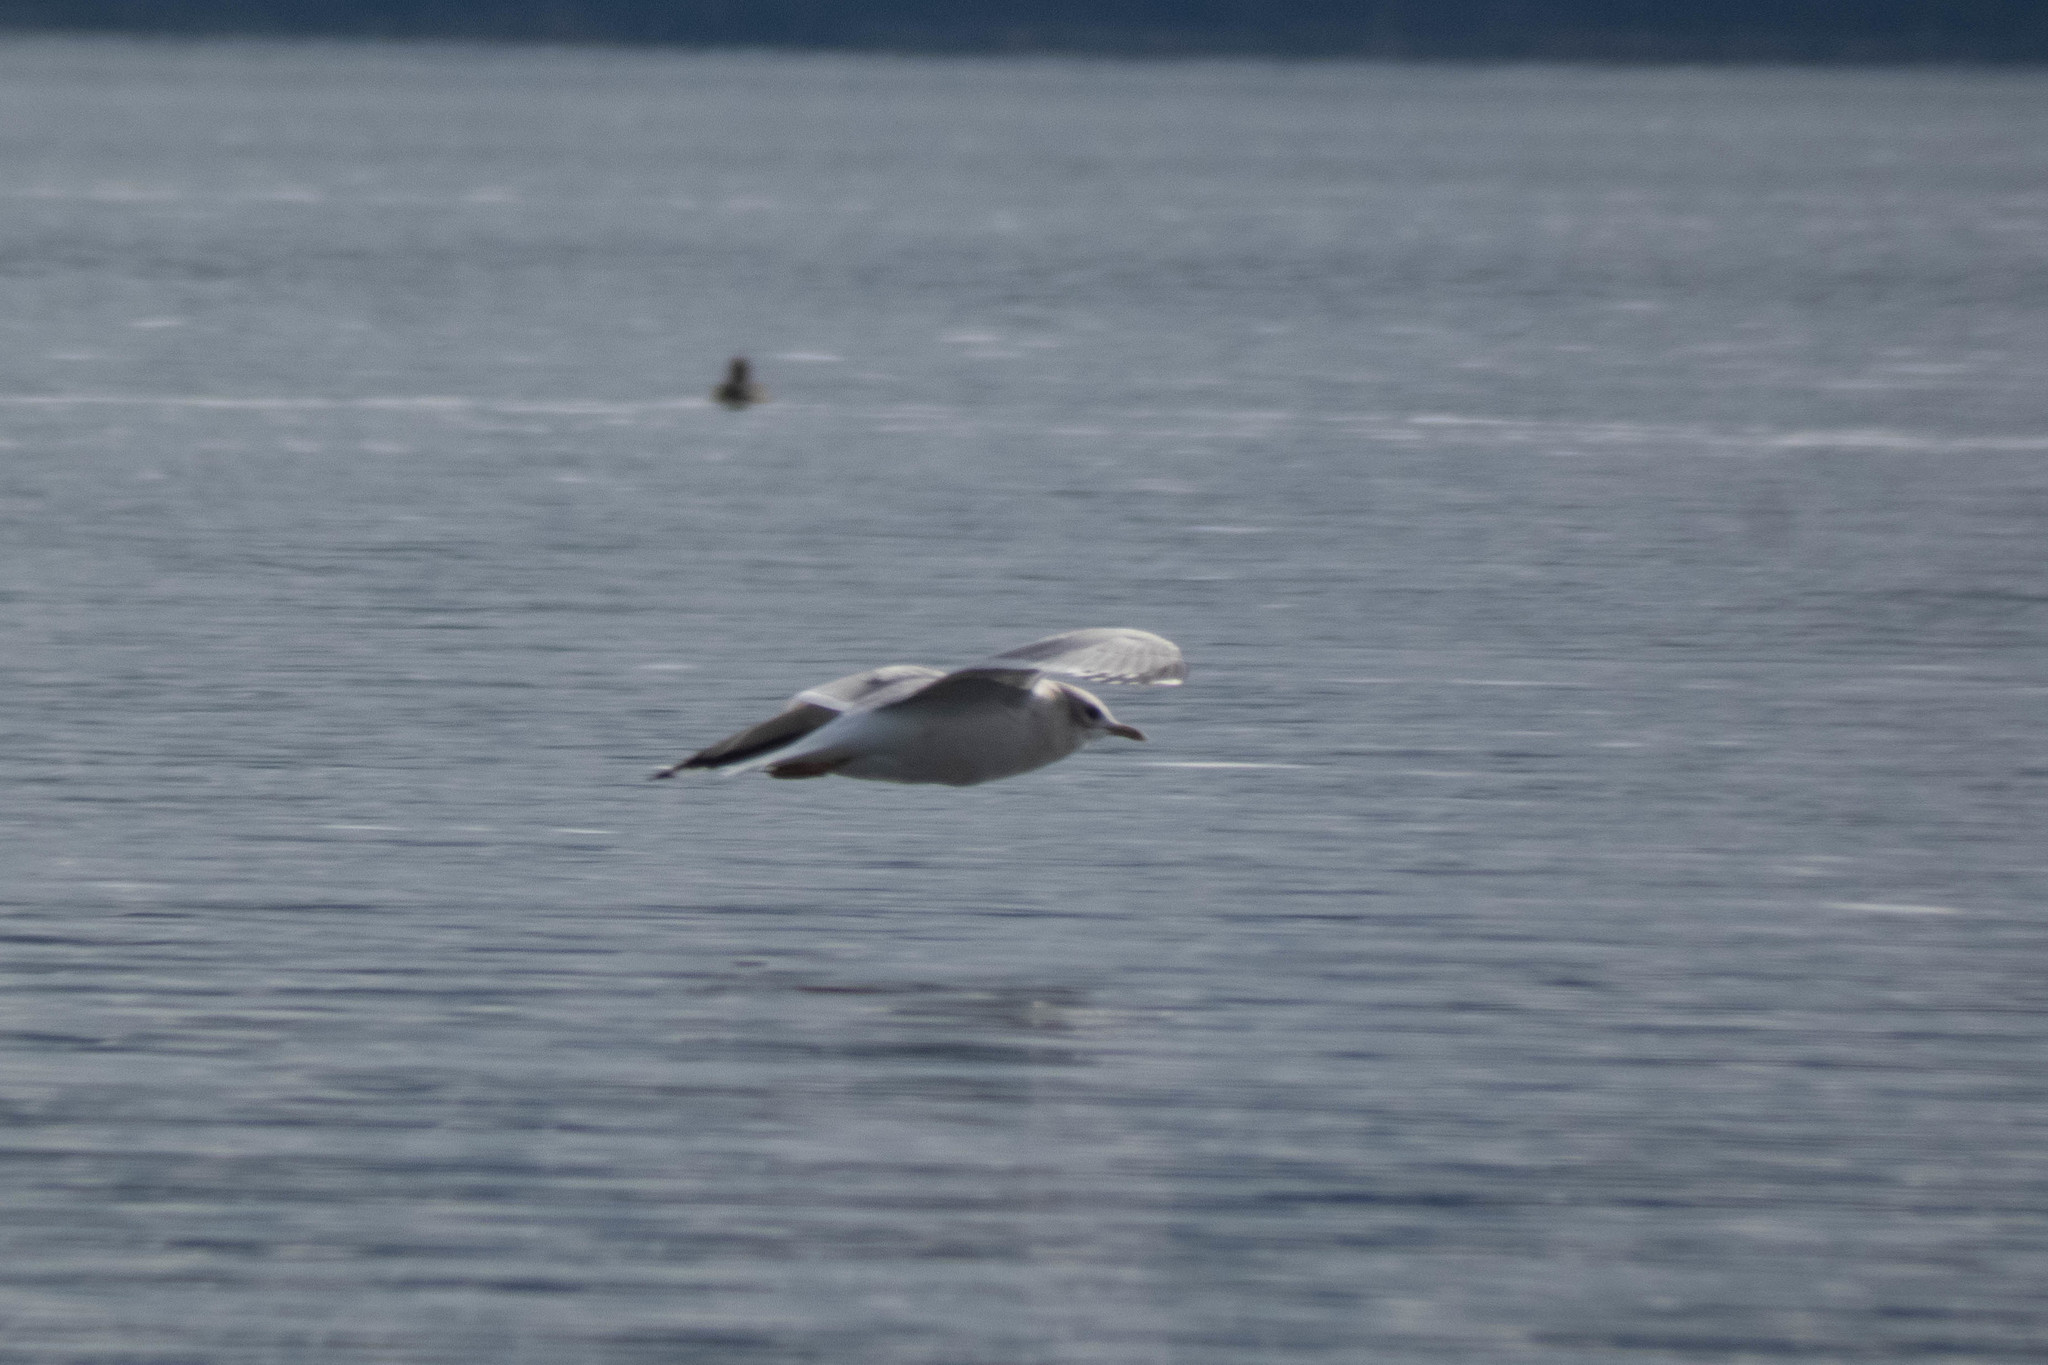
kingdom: Animalia
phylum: Chordata
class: Aves
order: Charadriiformes
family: Laridae
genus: Larus
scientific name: Larus brachyrhynchus
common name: Short-billed gull
